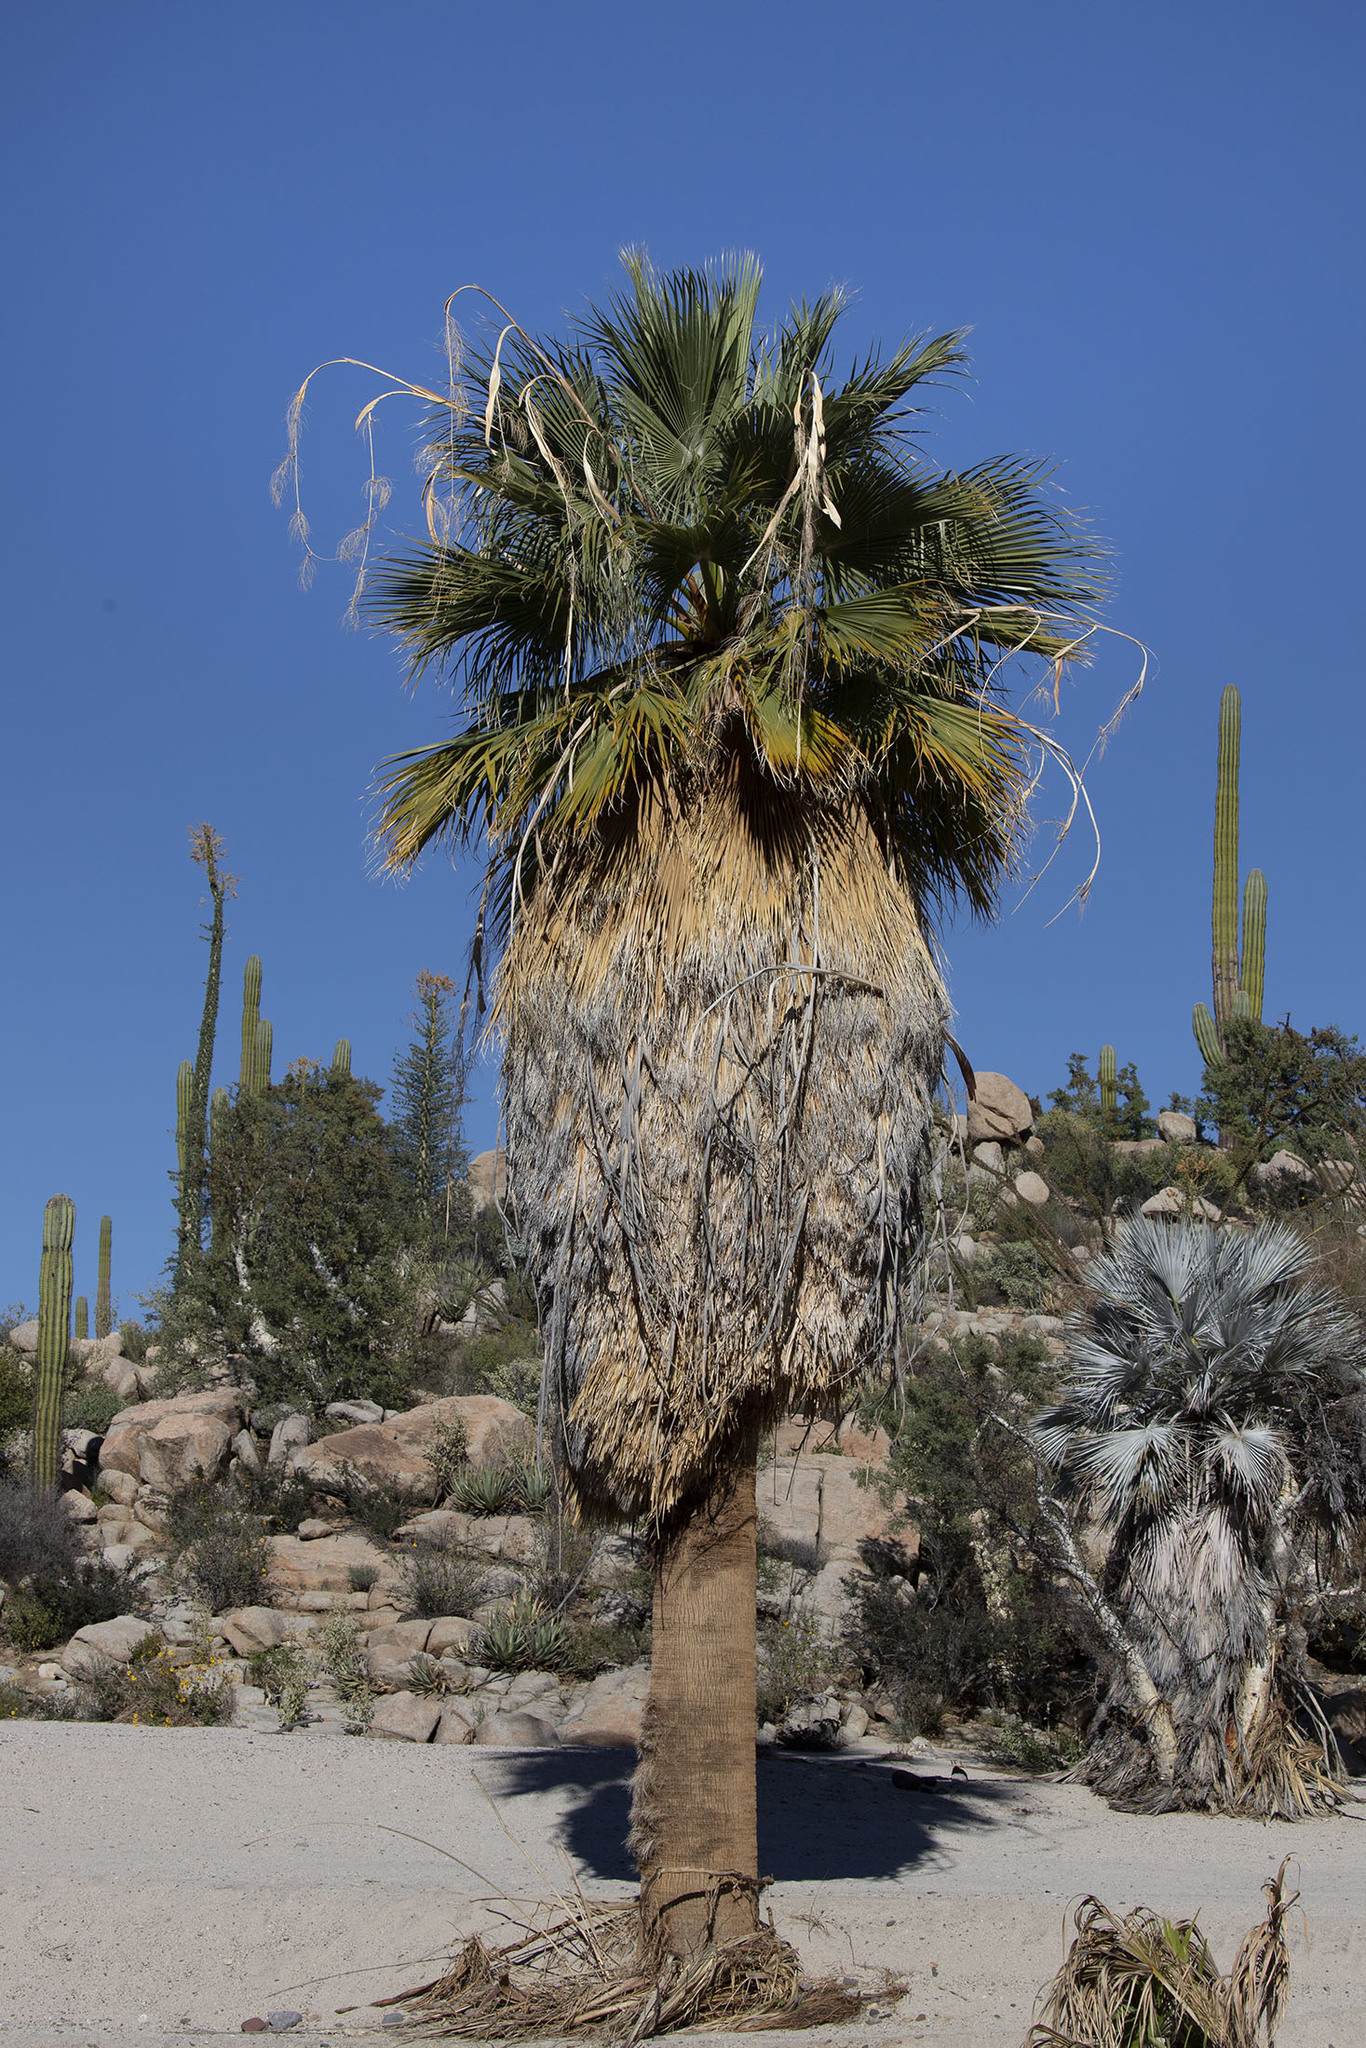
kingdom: Plantae
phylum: Tracheophyta
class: Liliopsida
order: Arecales
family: Arecaceae
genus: Washingtonia
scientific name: Washingtonia filifera
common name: California fan palm
